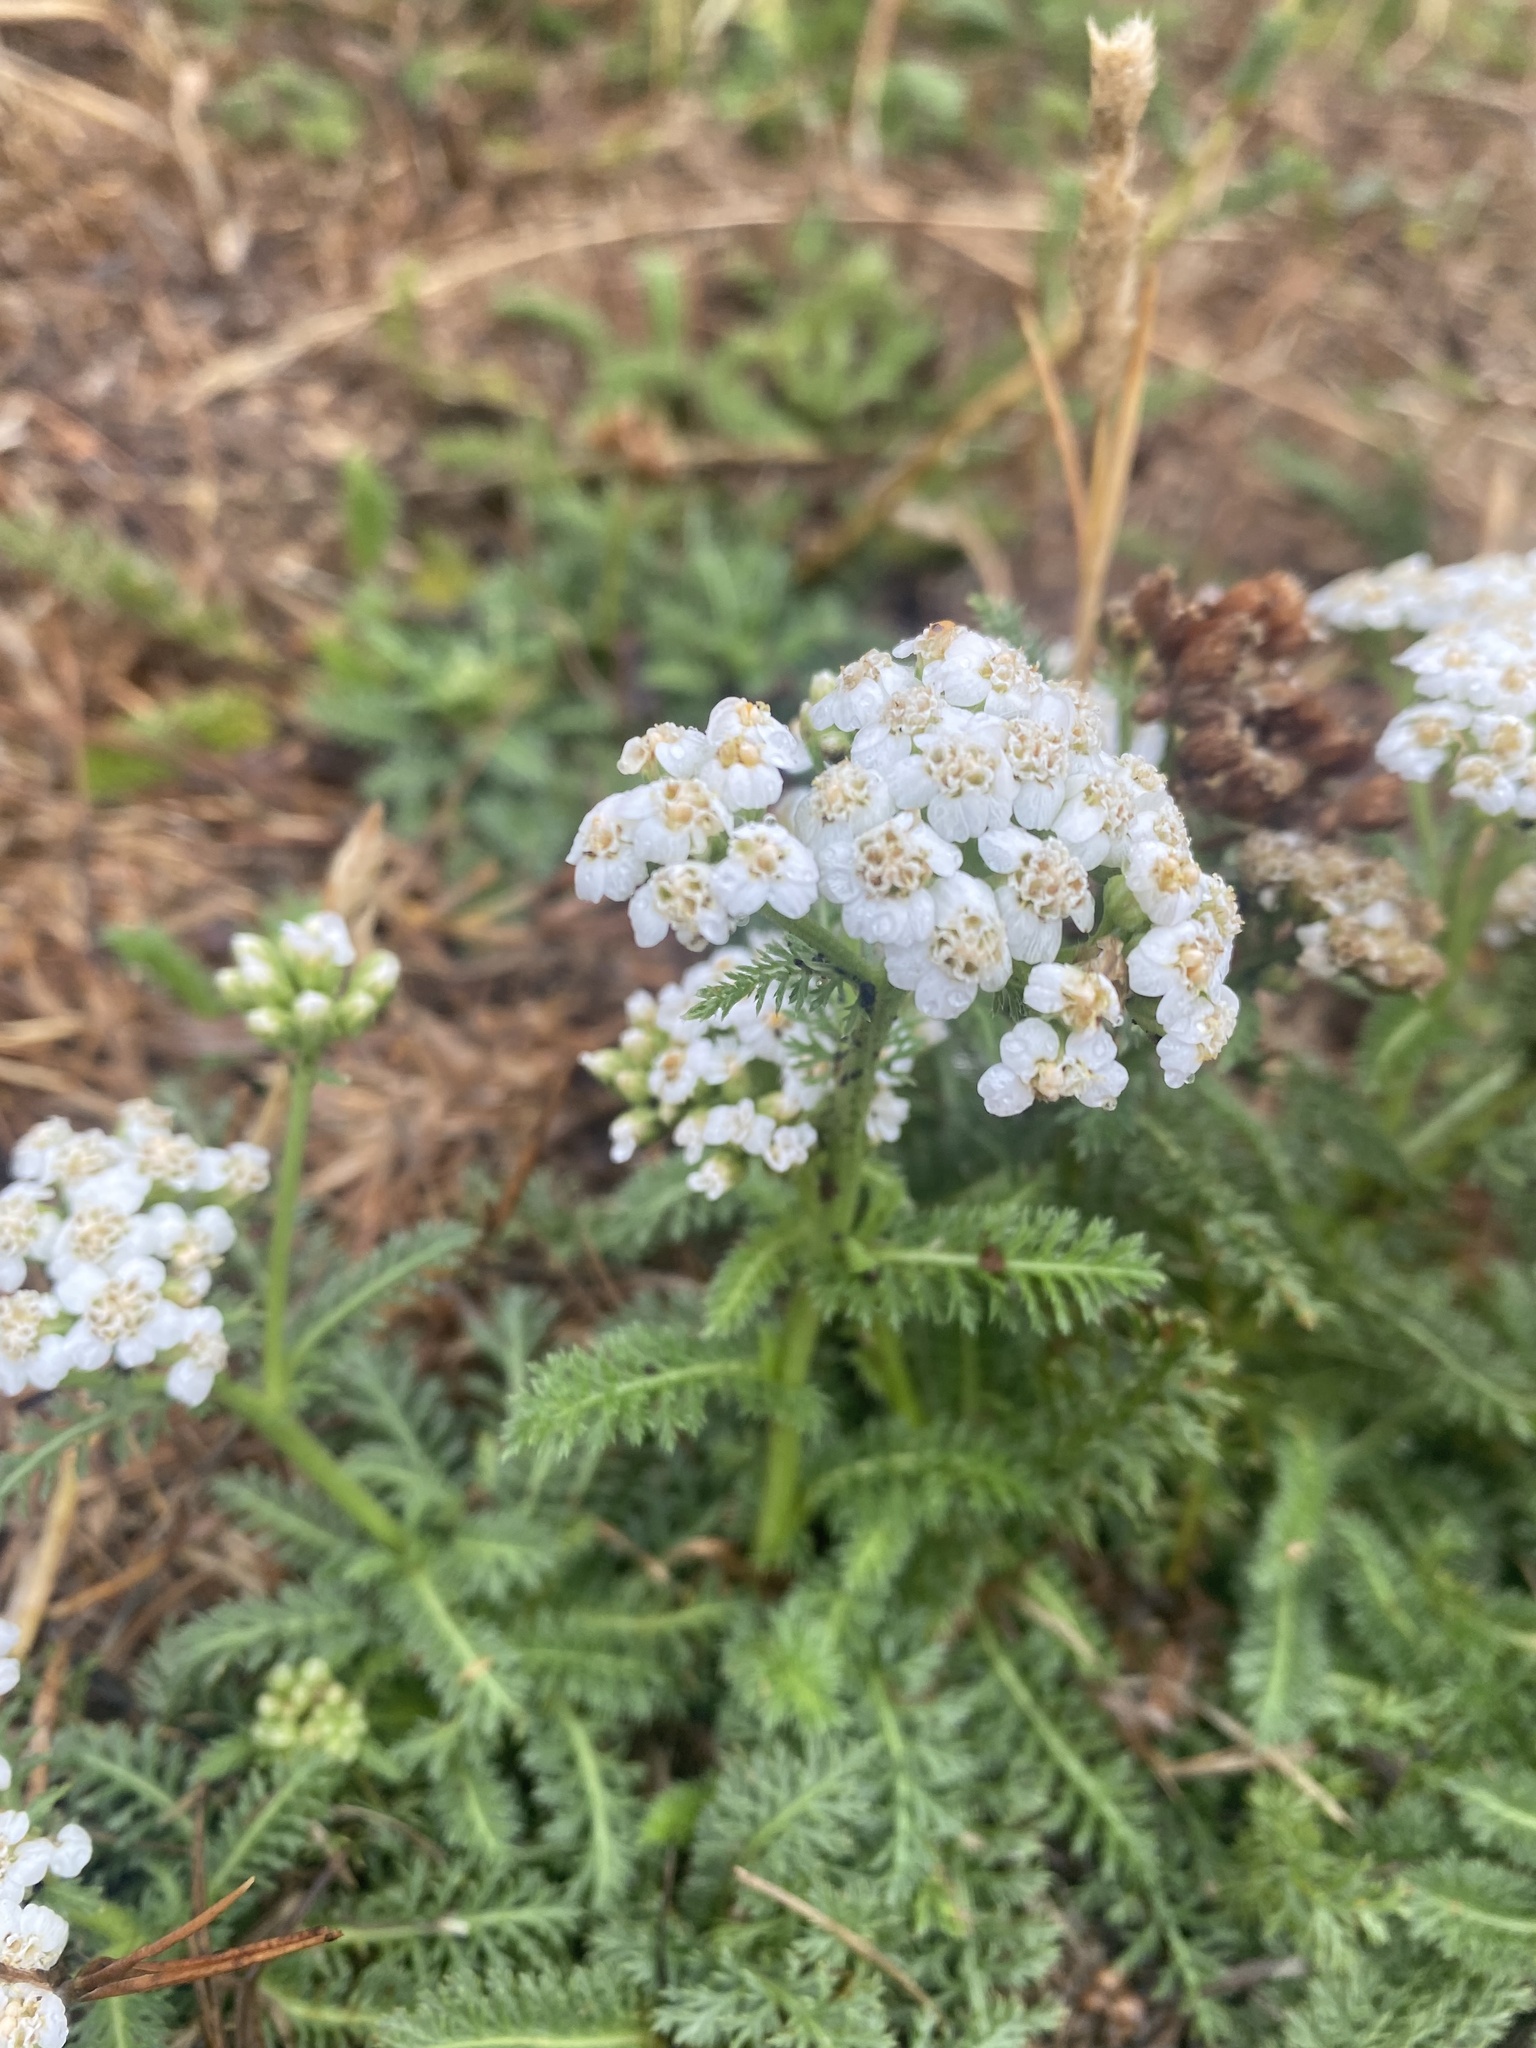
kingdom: Plantae
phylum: Tracheophyta
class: Magnoliopsida
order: Asterales
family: Asteraceae
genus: Achillea
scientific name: Achillea millefolium
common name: Yarrow
